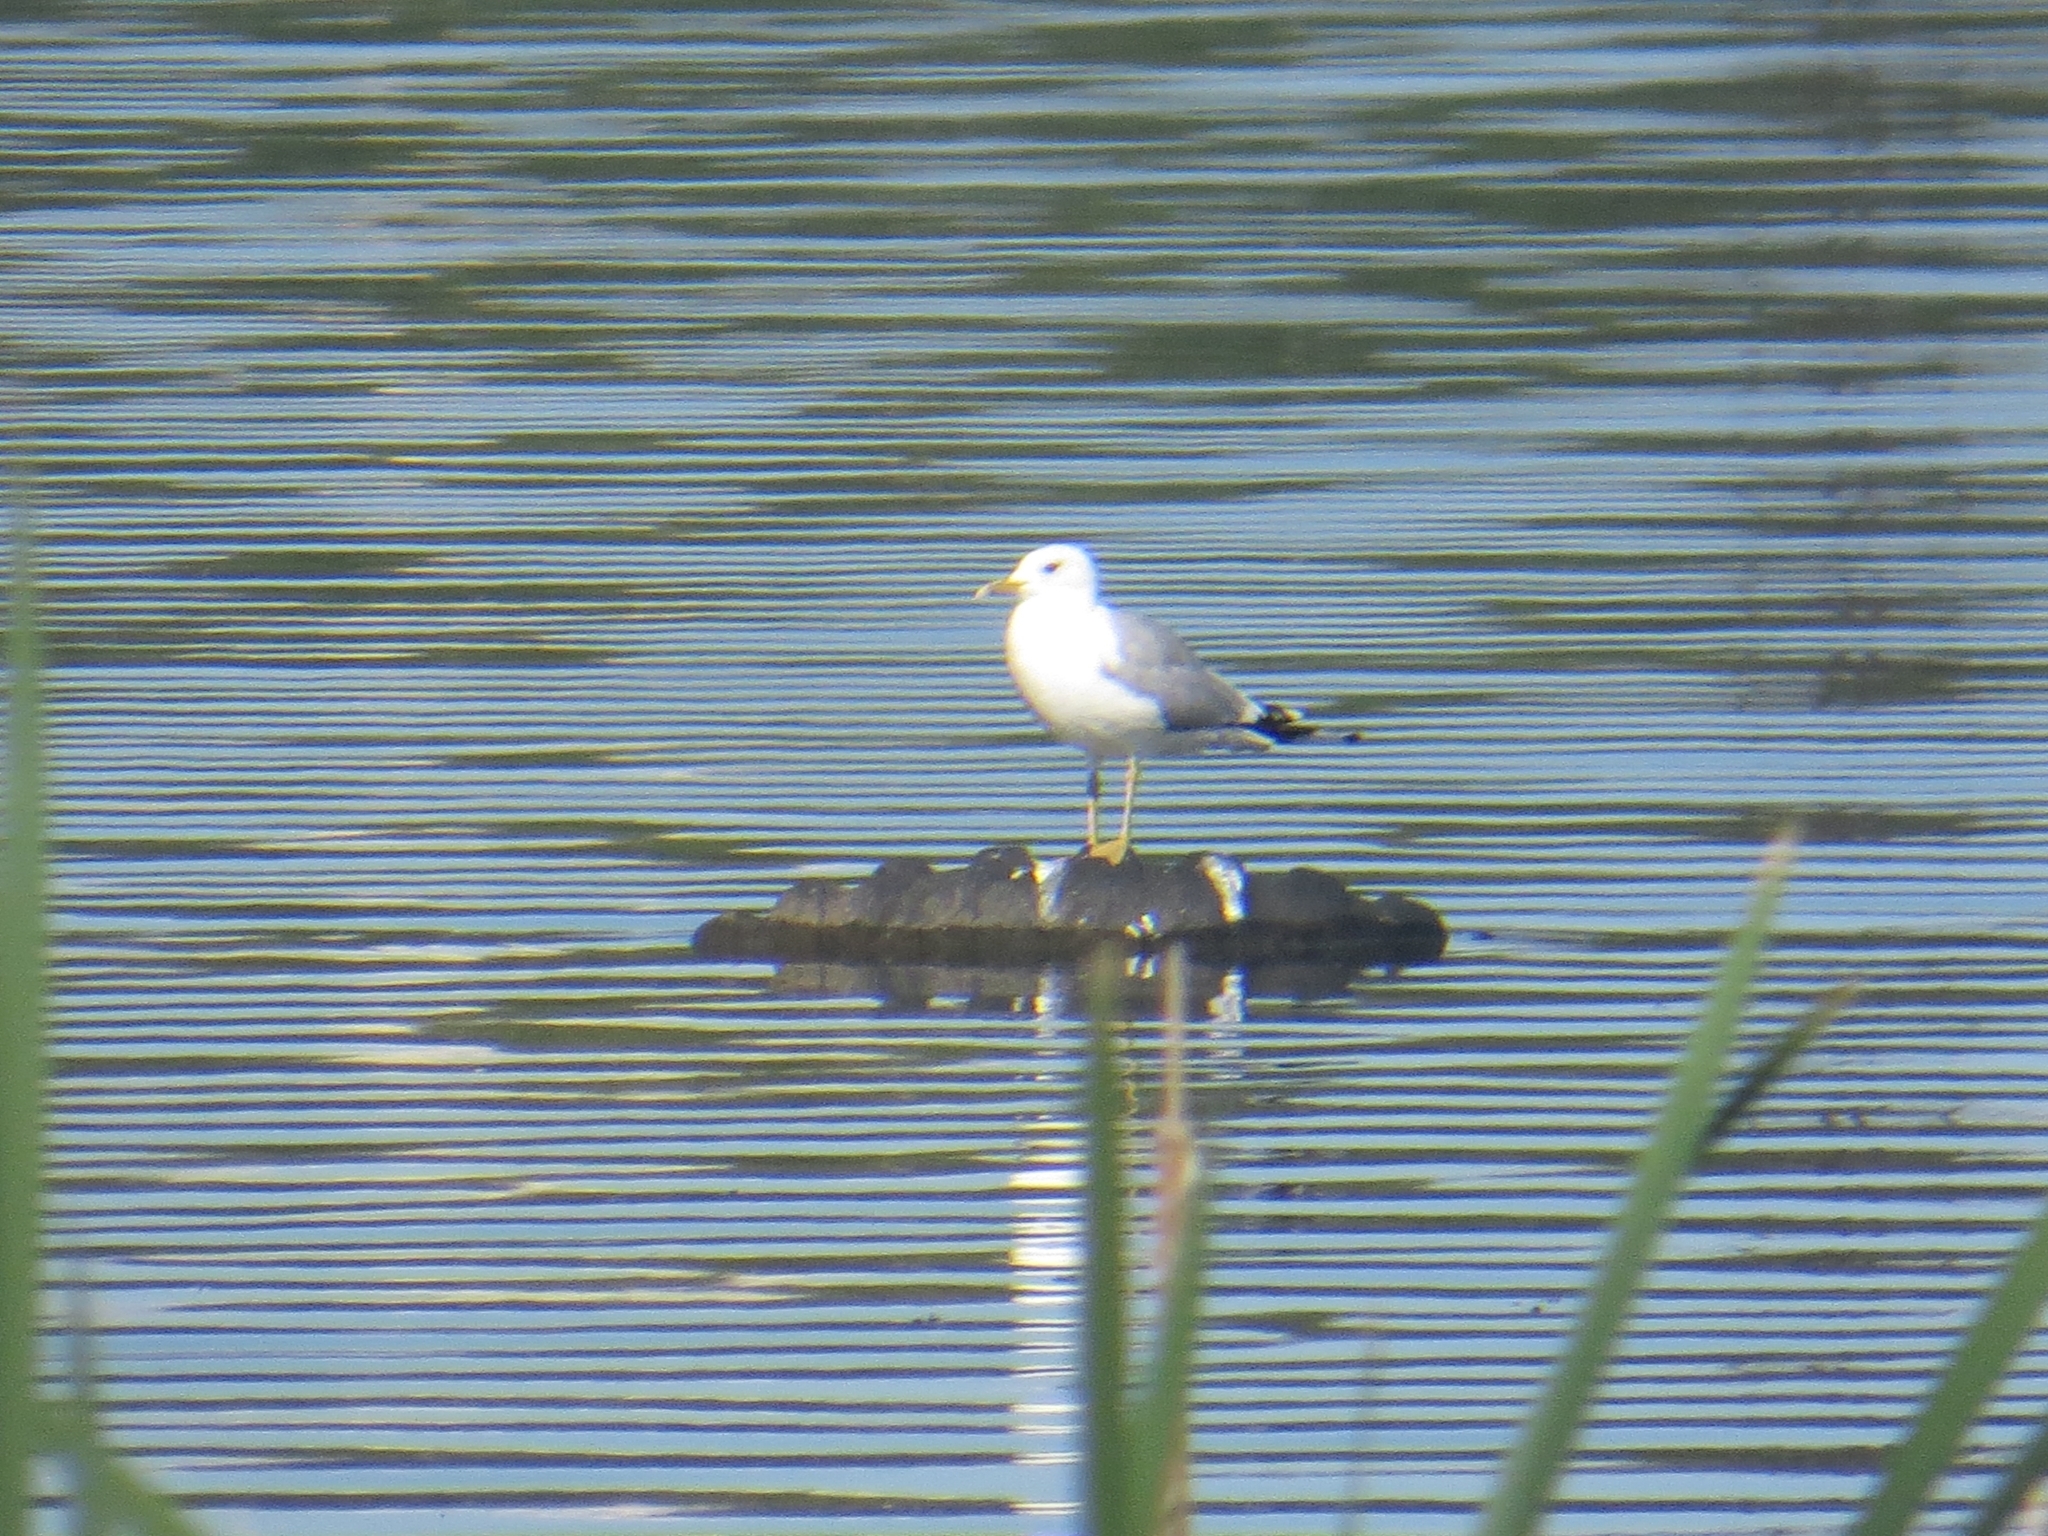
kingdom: Animalia
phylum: Chordata
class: Aves
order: Charadriiformes
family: Laridae
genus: Larus
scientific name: Larus canus
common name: Mew gull
